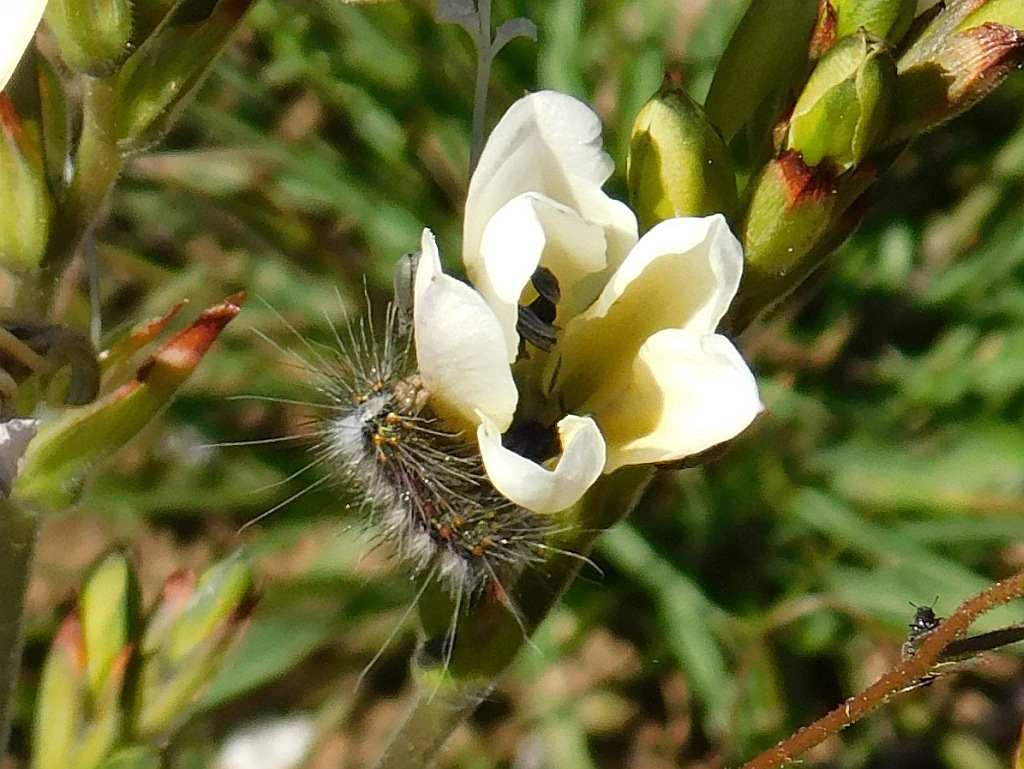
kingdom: Animalia
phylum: Arthropoda
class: Insecta
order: Lepidoptera
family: Erebidae
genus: Paralacydes
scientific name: Paralacydes vocula
